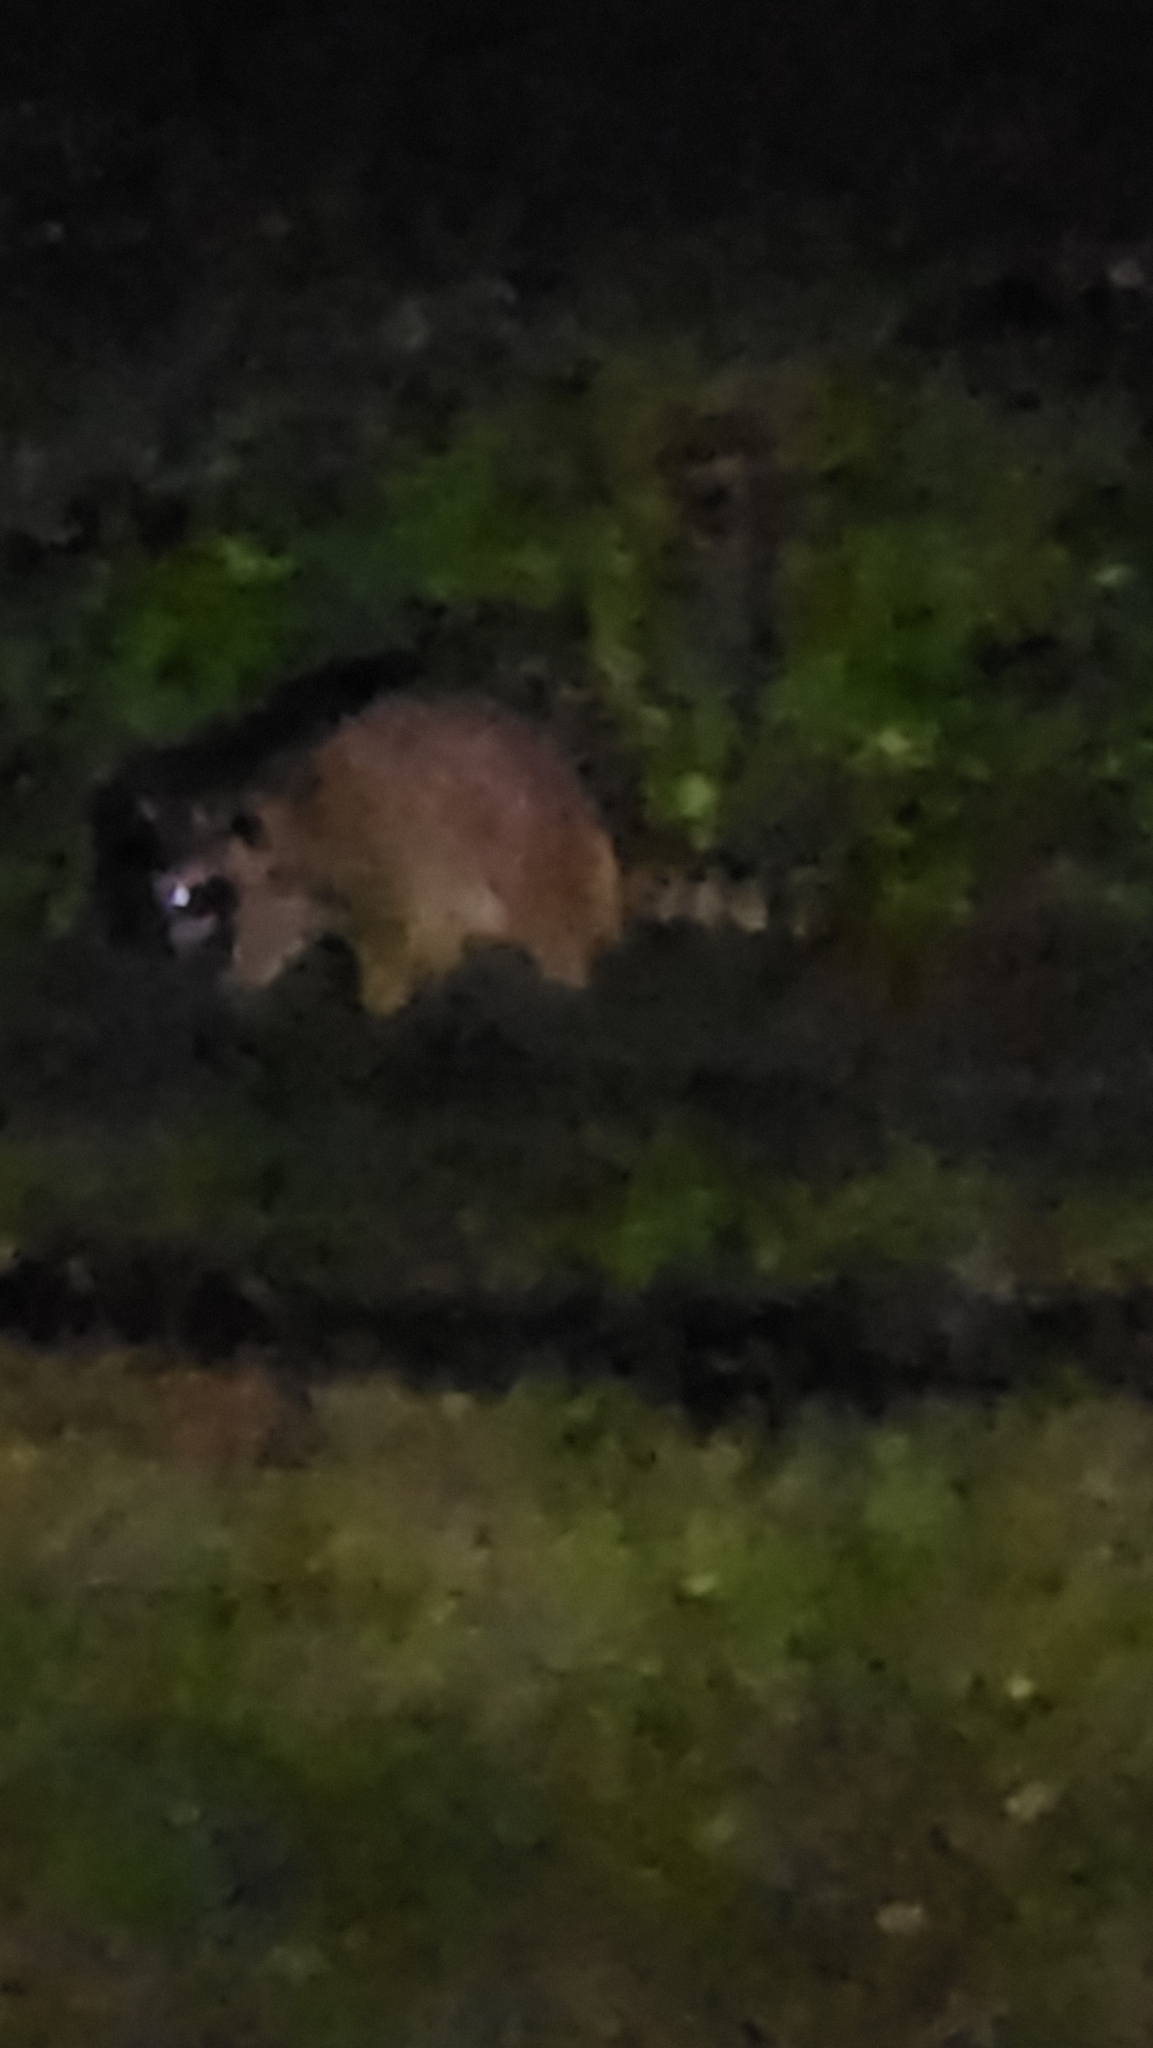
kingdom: Animalia
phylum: Chordata
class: Mammalia
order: Carnivora
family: Procyonidae
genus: Procyon
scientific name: Procyon lotor
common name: Raccoon
